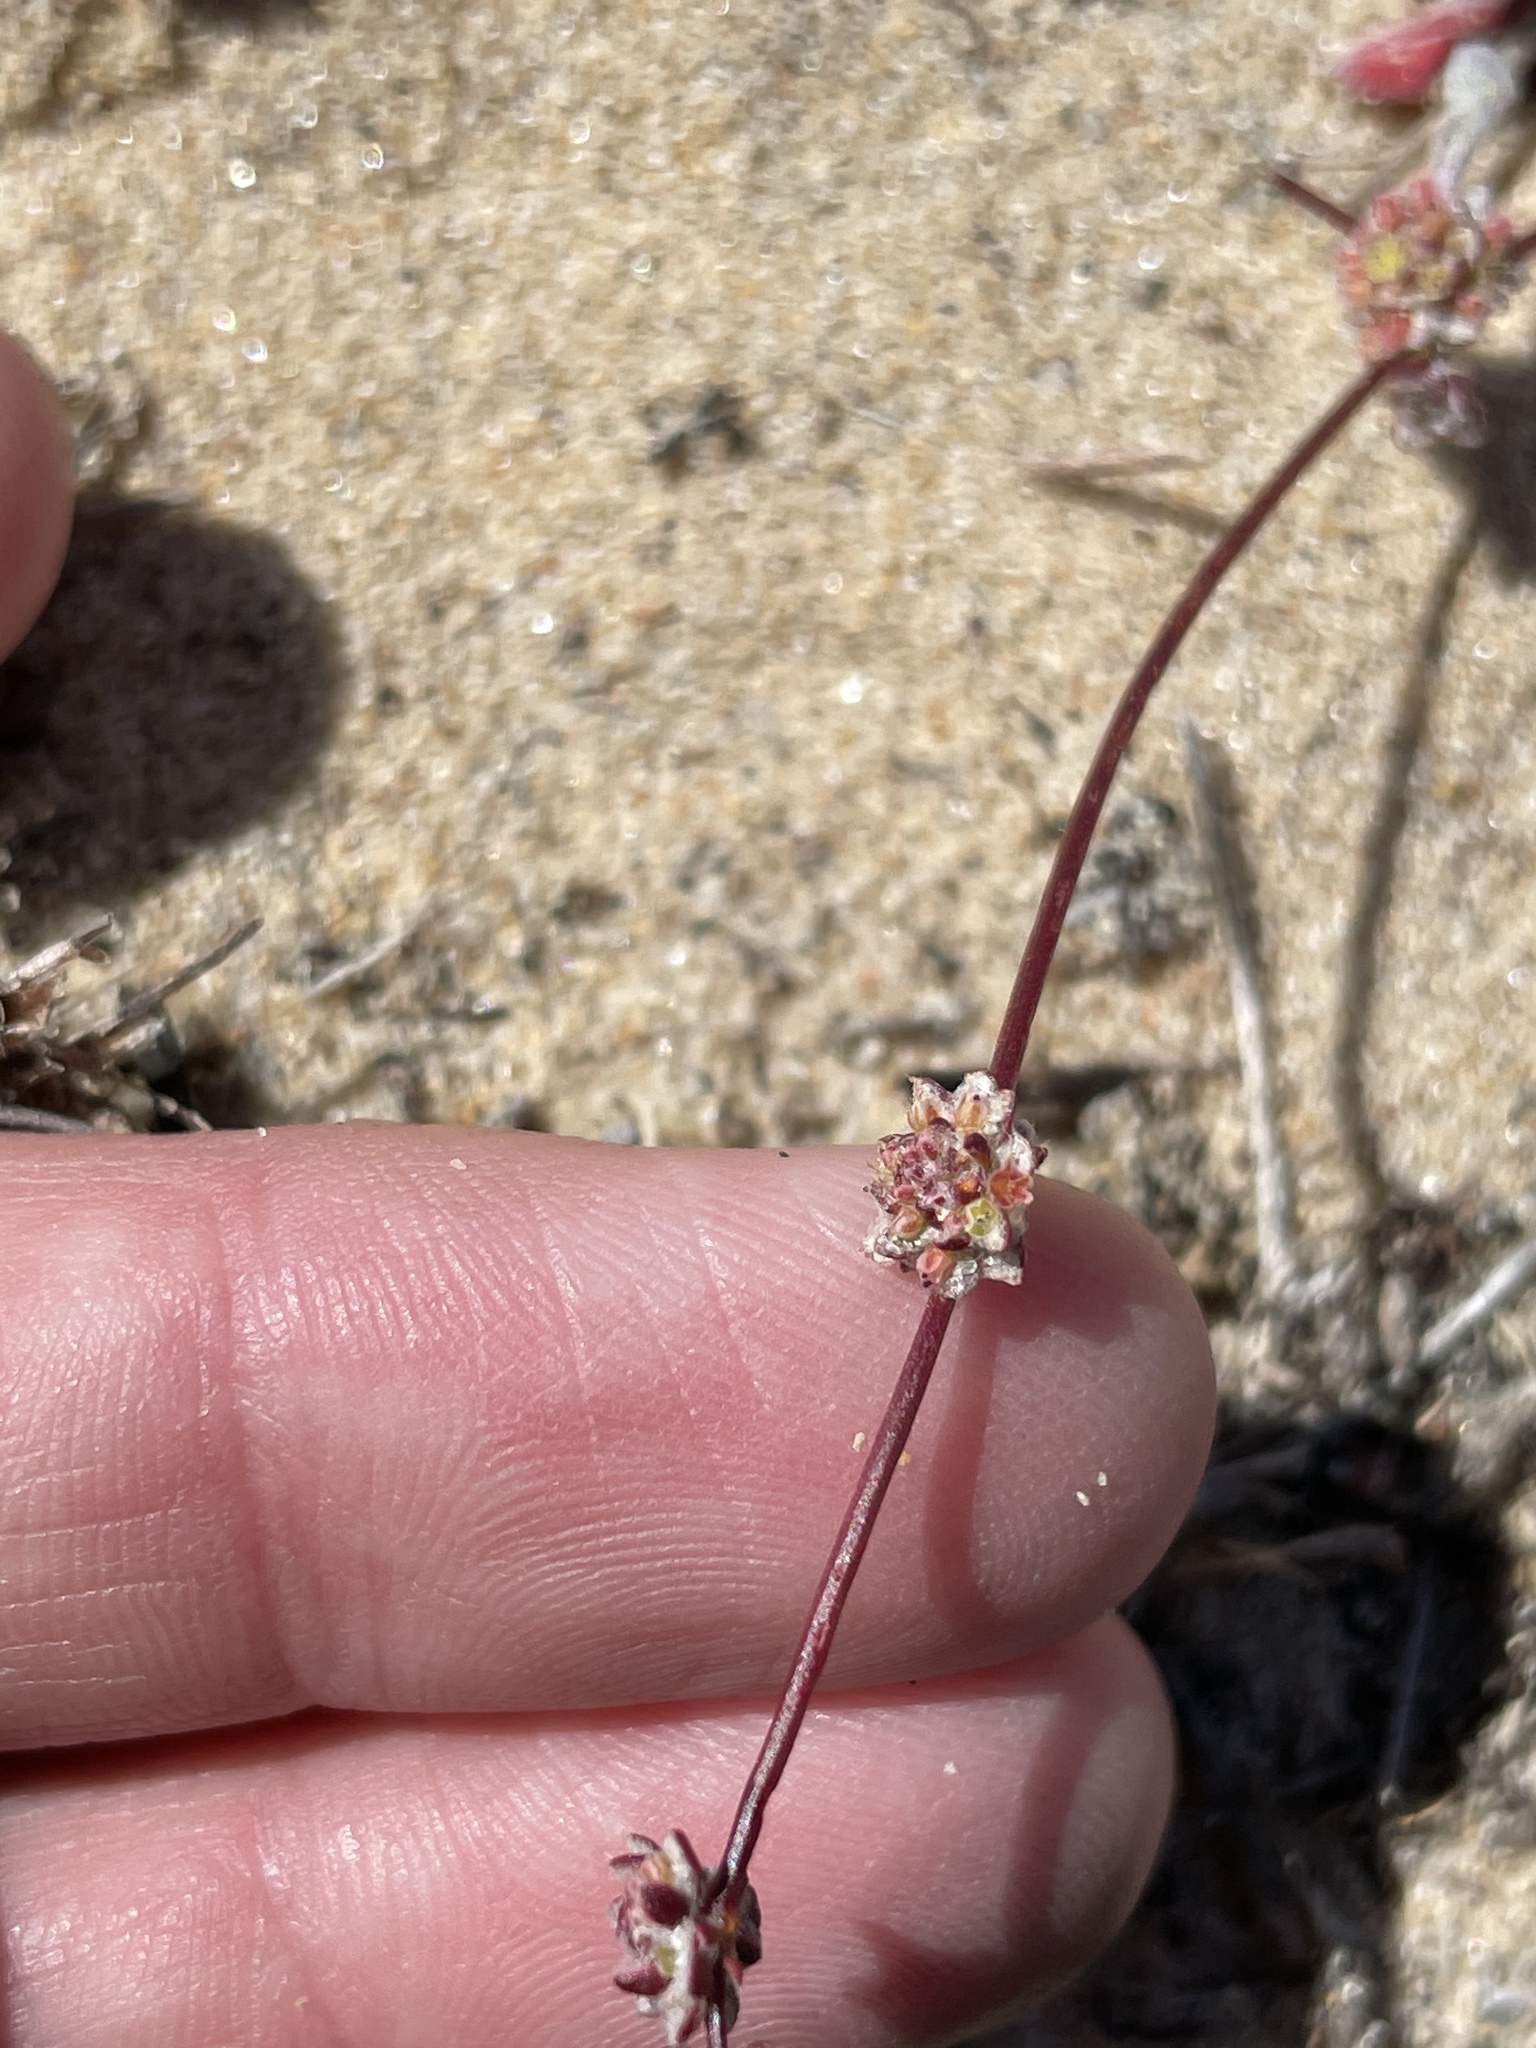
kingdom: Plantae
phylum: Tracheophyta
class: Magnoliopsida
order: Caryophyllales
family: Polygonaceae
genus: Nemacaulis
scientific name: Nemacaulis denudata
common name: Woolly-heads
